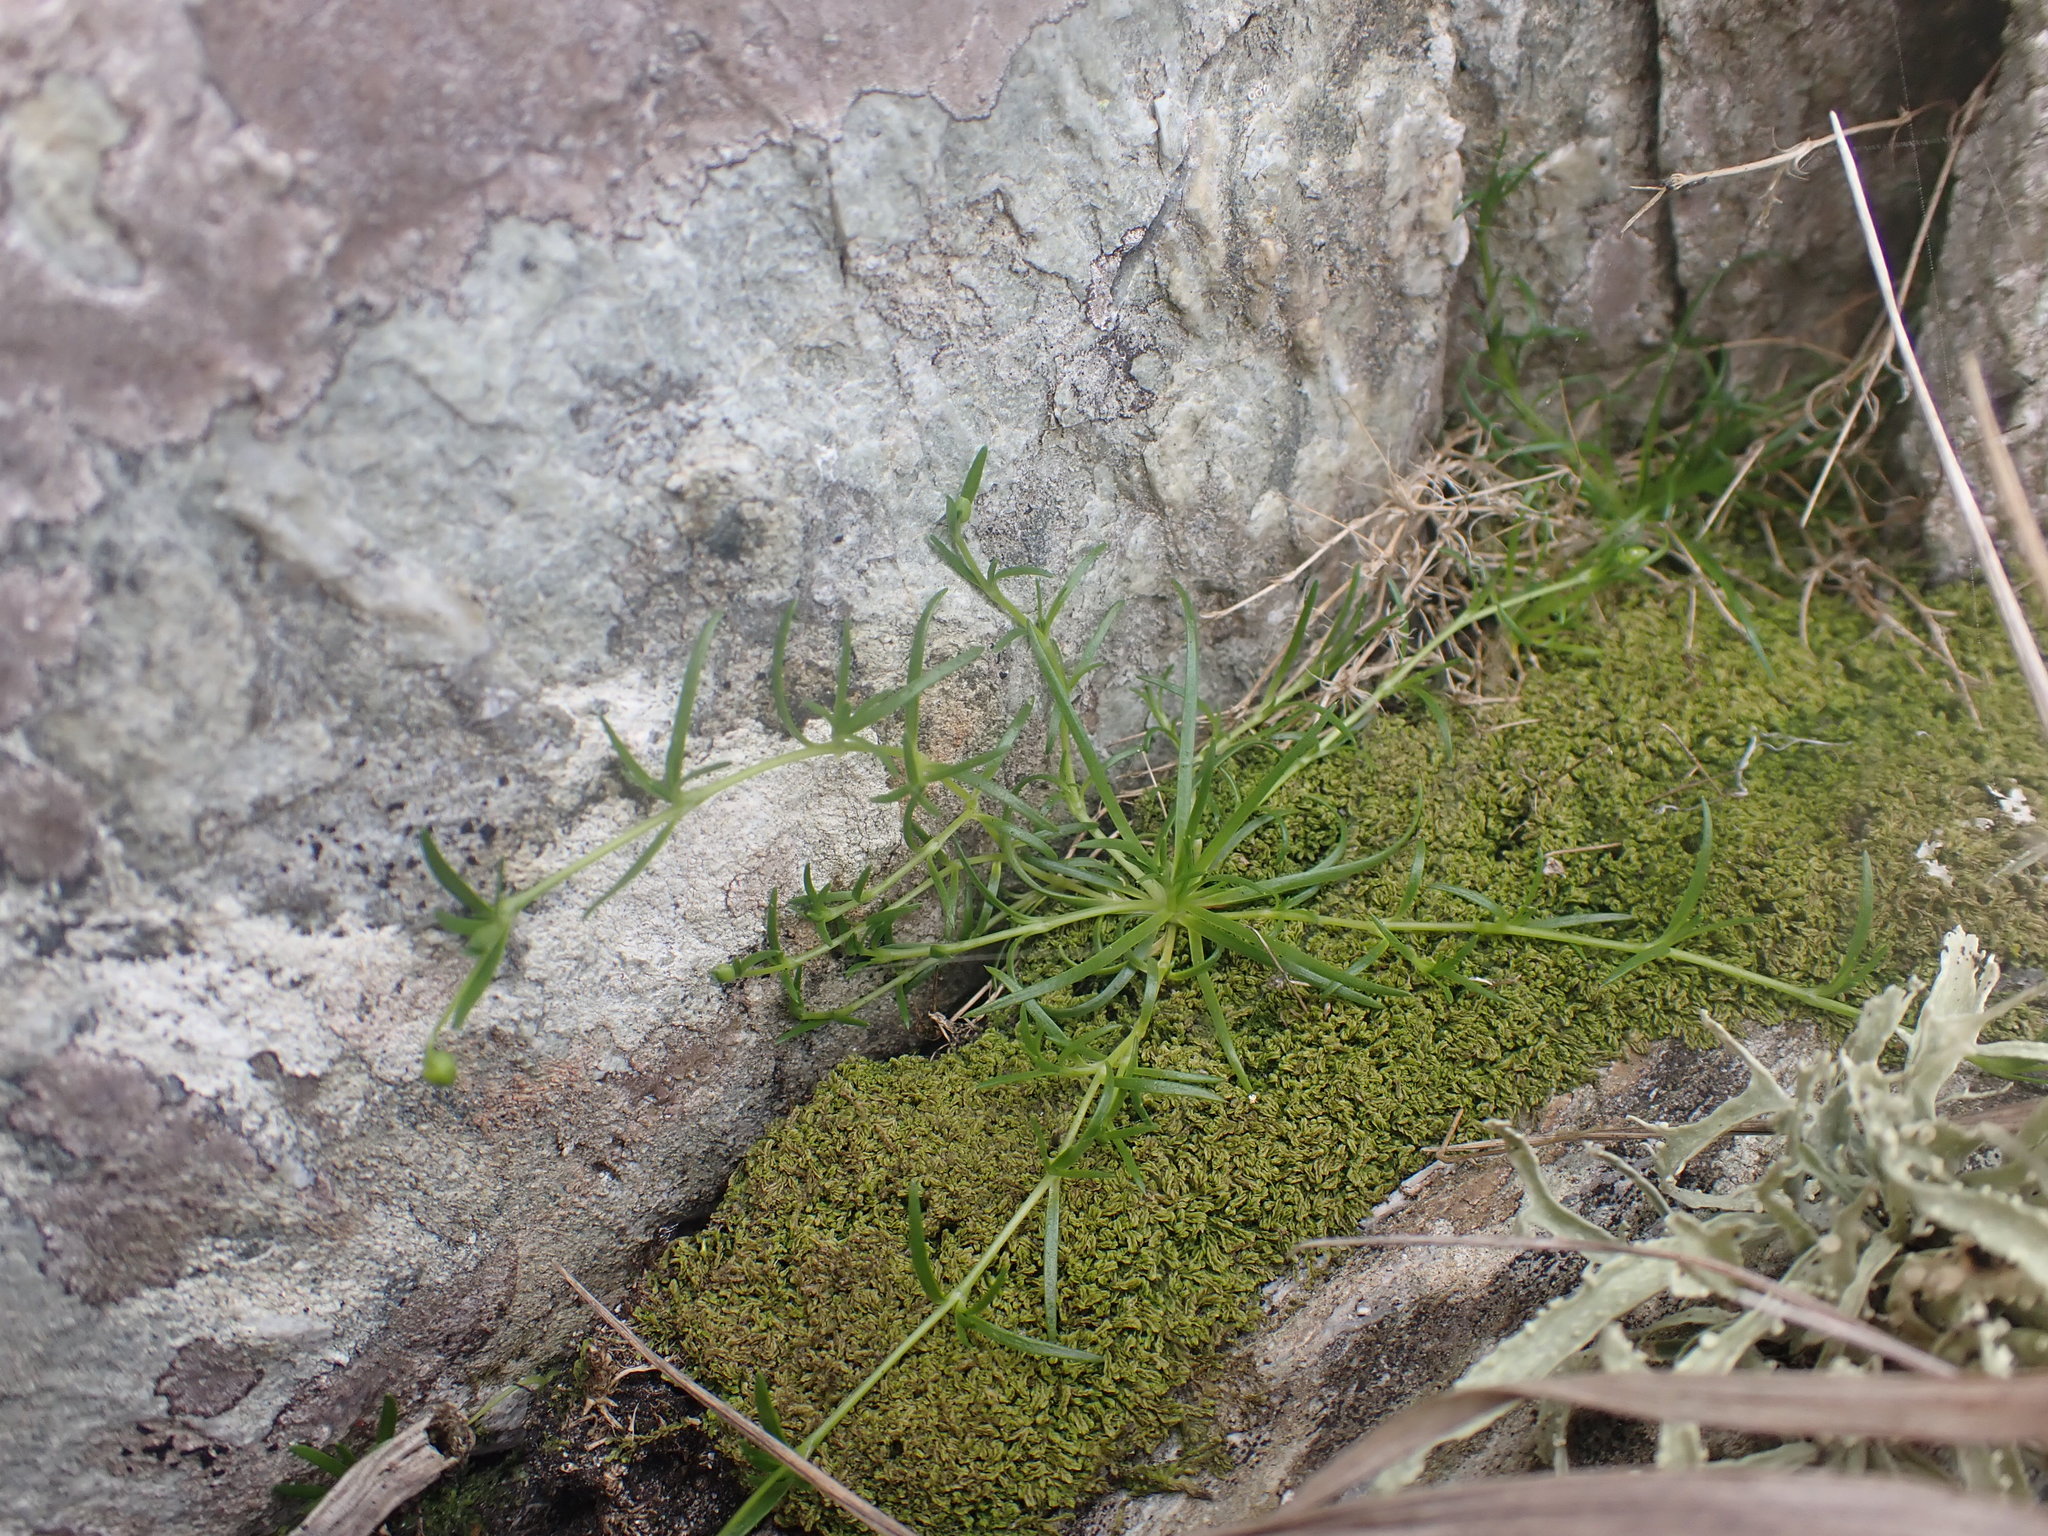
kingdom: Plantae
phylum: Tracheophyta
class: Magnoliopsida
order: Caryophyllales
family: Caryophyllaceae
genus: Sagina
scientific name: Sagina procumbens
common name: Procumbent pearlwort
